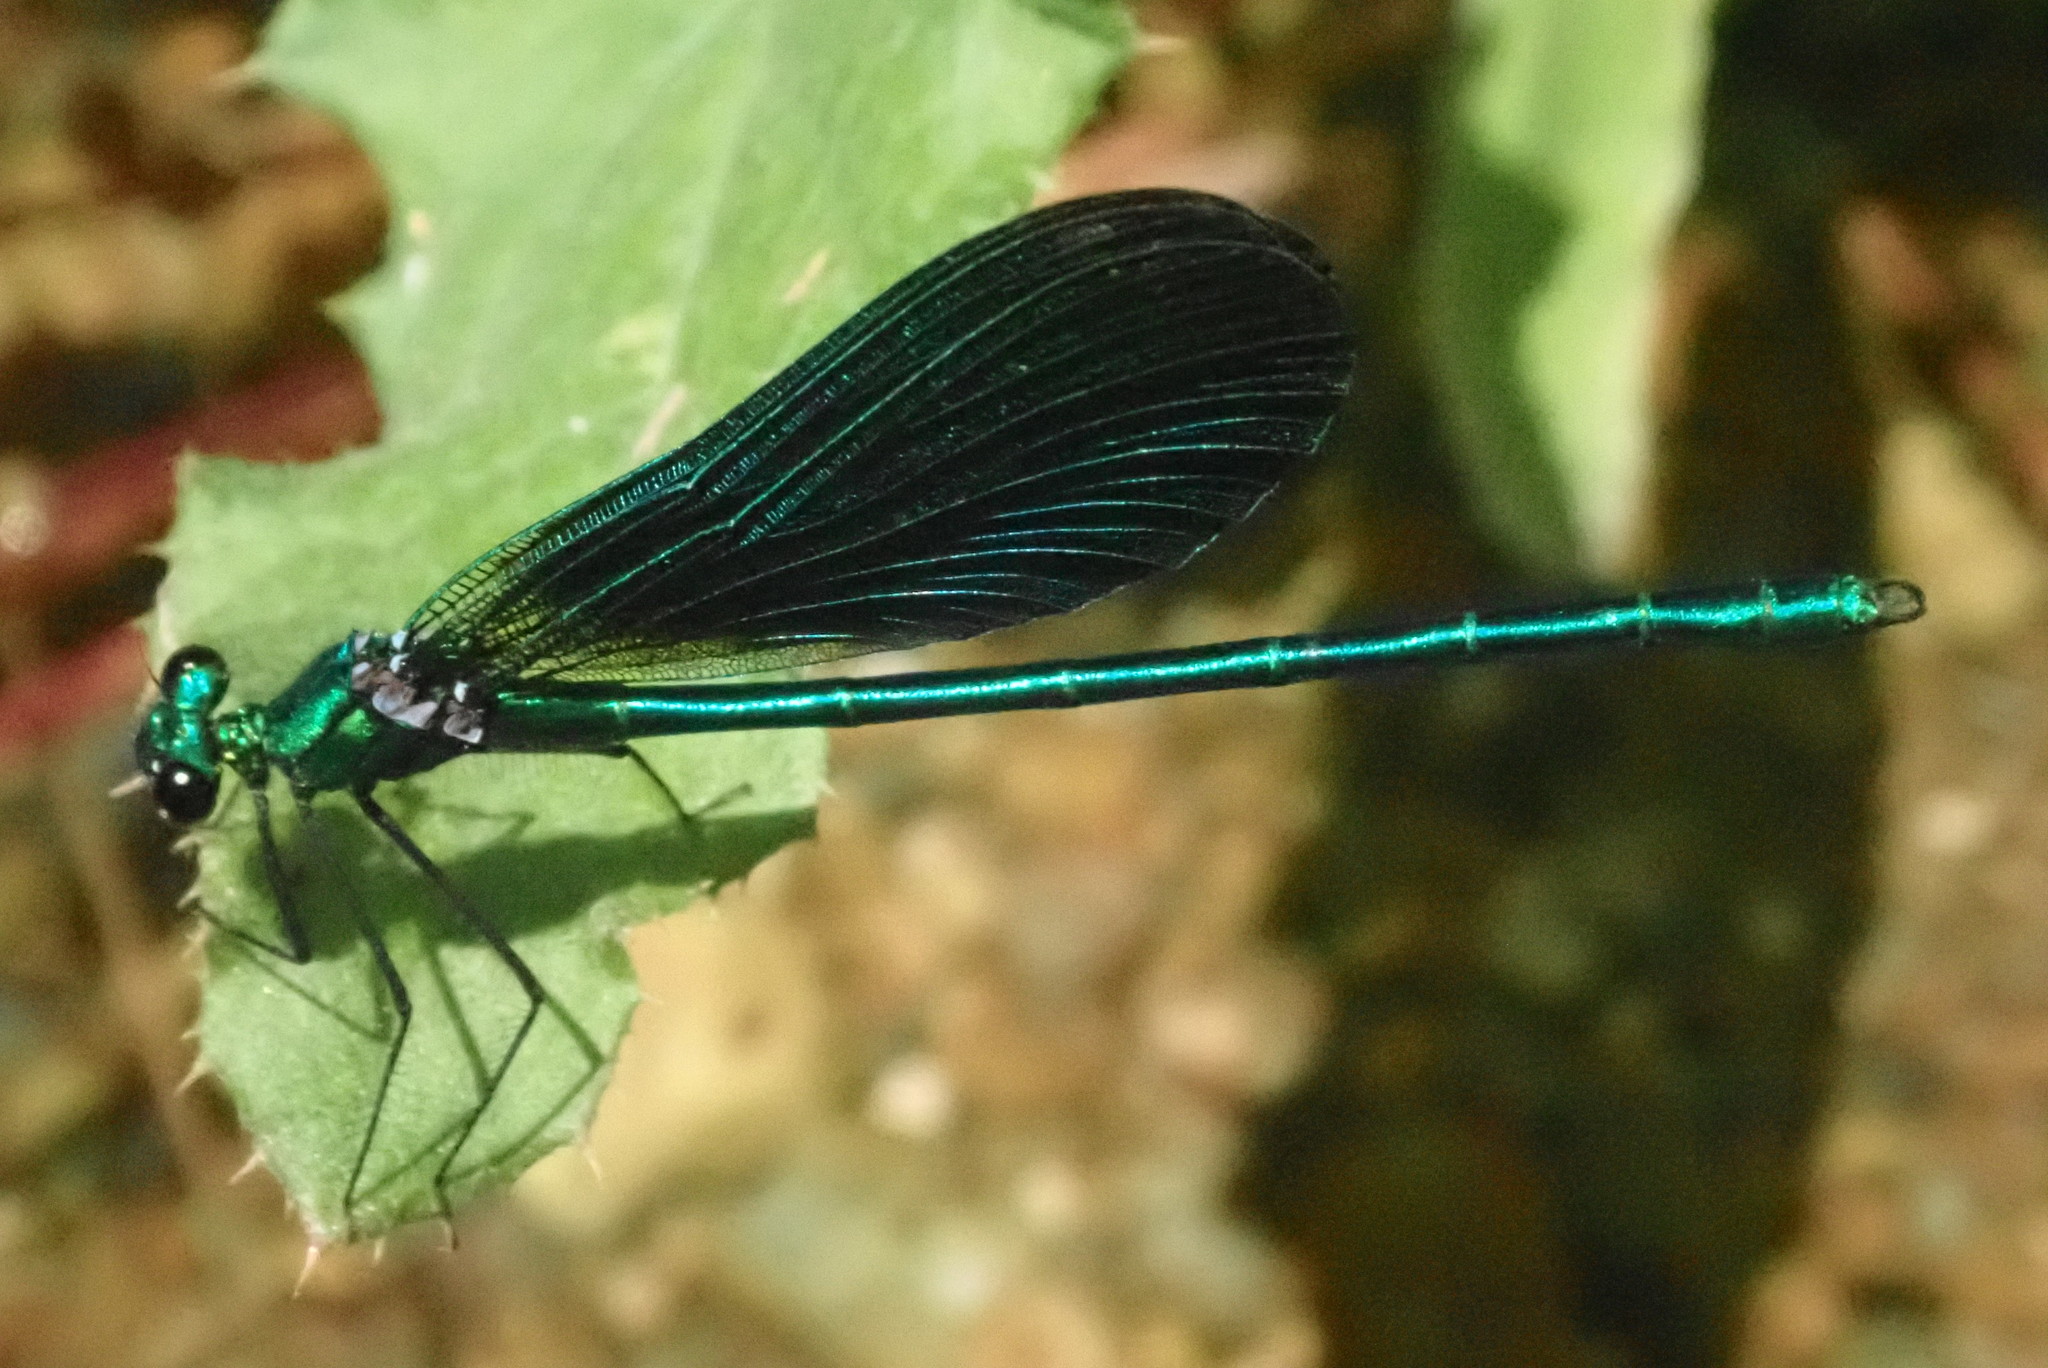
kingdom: Animalia
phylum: Arthropoda
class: Insecta
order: Odonata
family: Calopterygidae
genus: Calopteryx
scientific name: Calopteryx virgo
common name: Beautiful demoiselle
